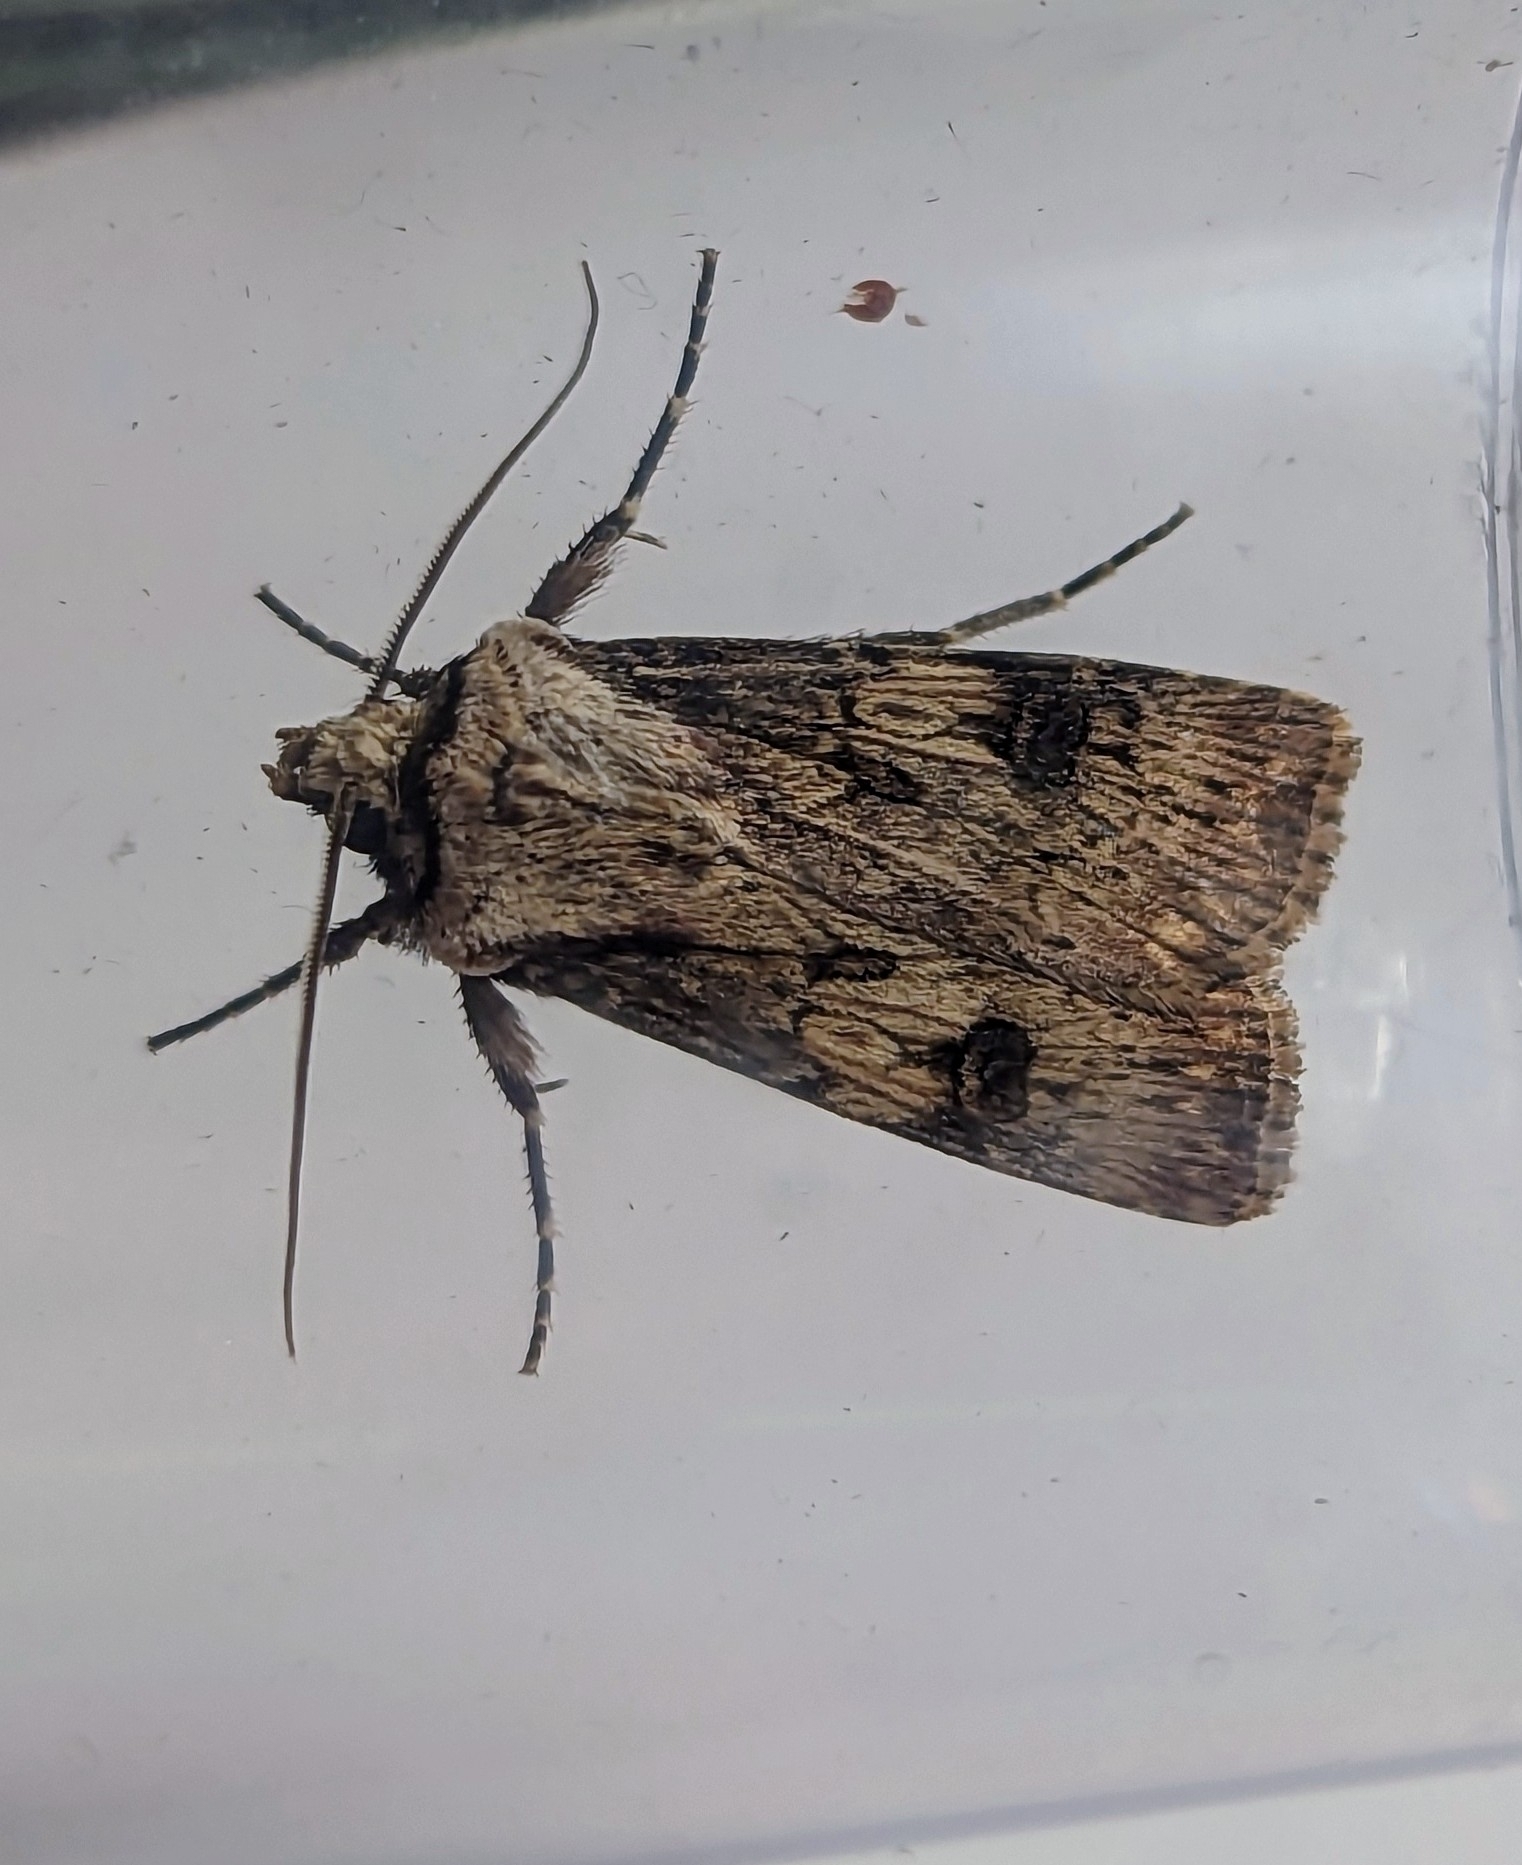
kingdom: Animalia
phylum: Arthropoda
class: Insecta
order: Lepidoptera
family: Noctuidae
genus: Agrotis
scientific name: Agrotis puta
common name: Shuttle-shaped dart
